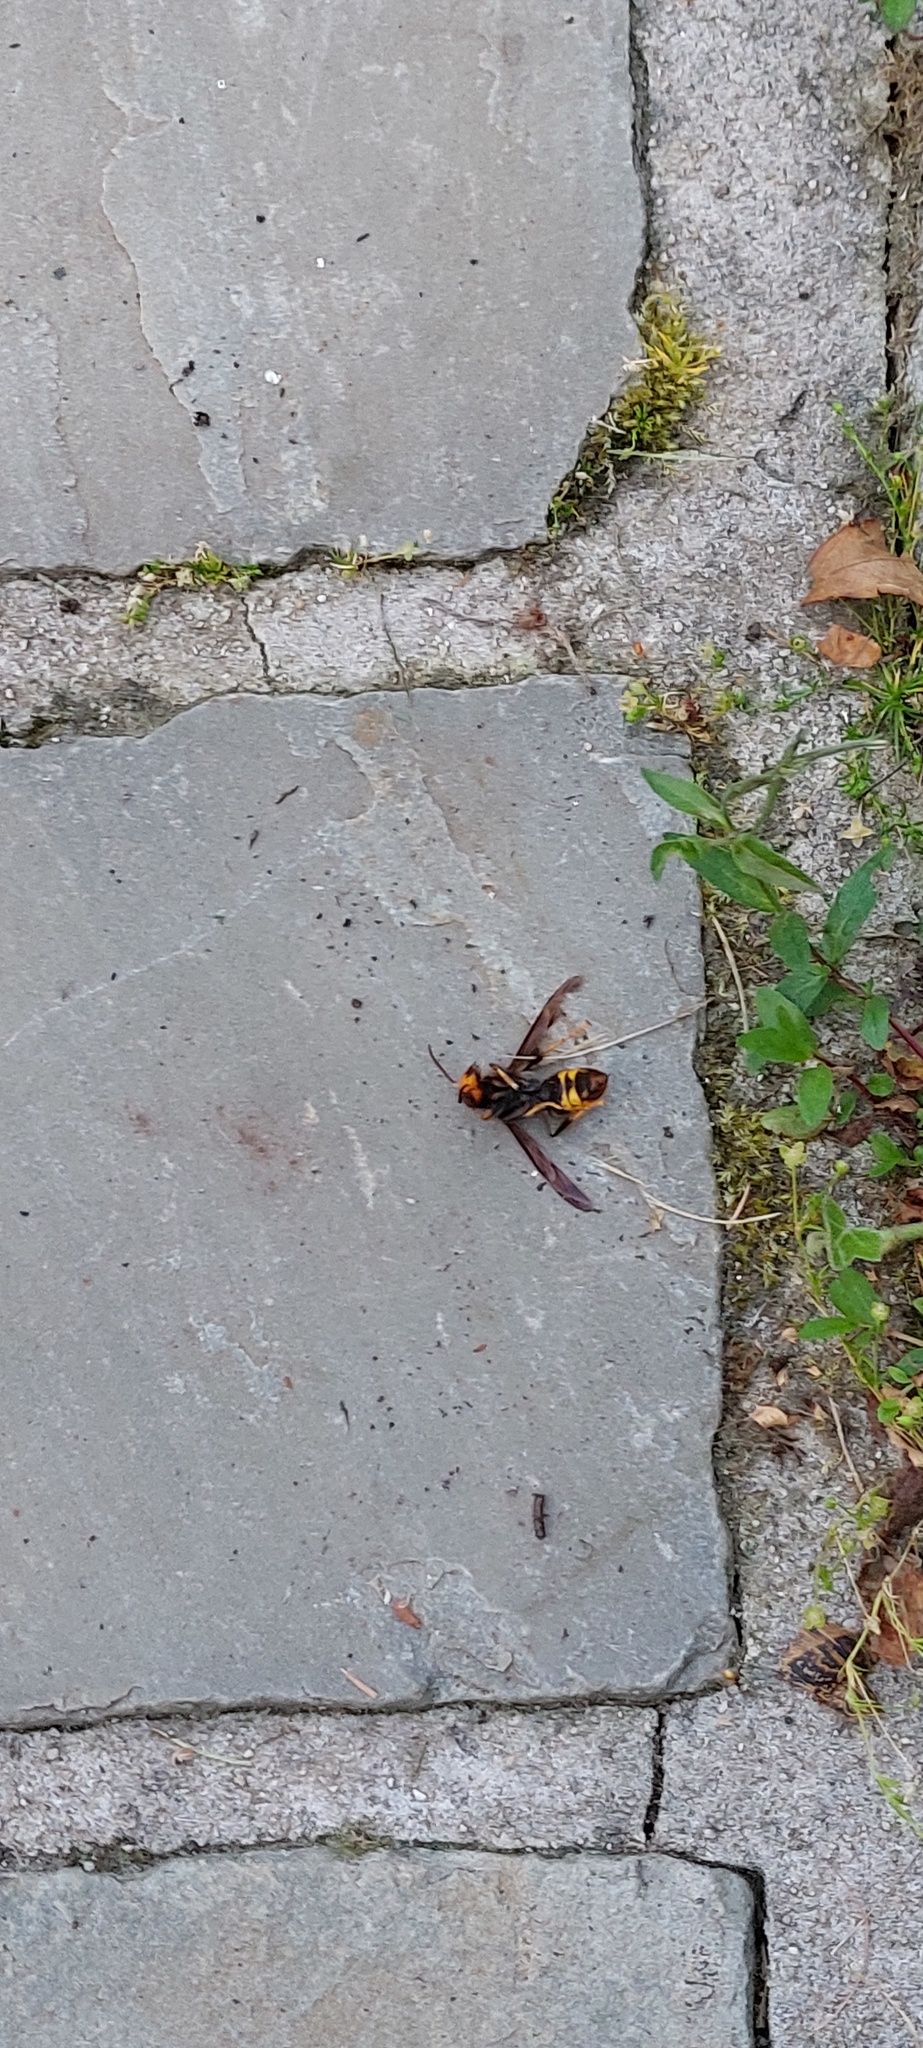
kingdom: Animalia
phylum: Arthropoda
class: Insecta
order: Hymenoptera
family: Vespidae
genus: Vespa
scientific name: Vespa velutina
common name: Asian hornet
